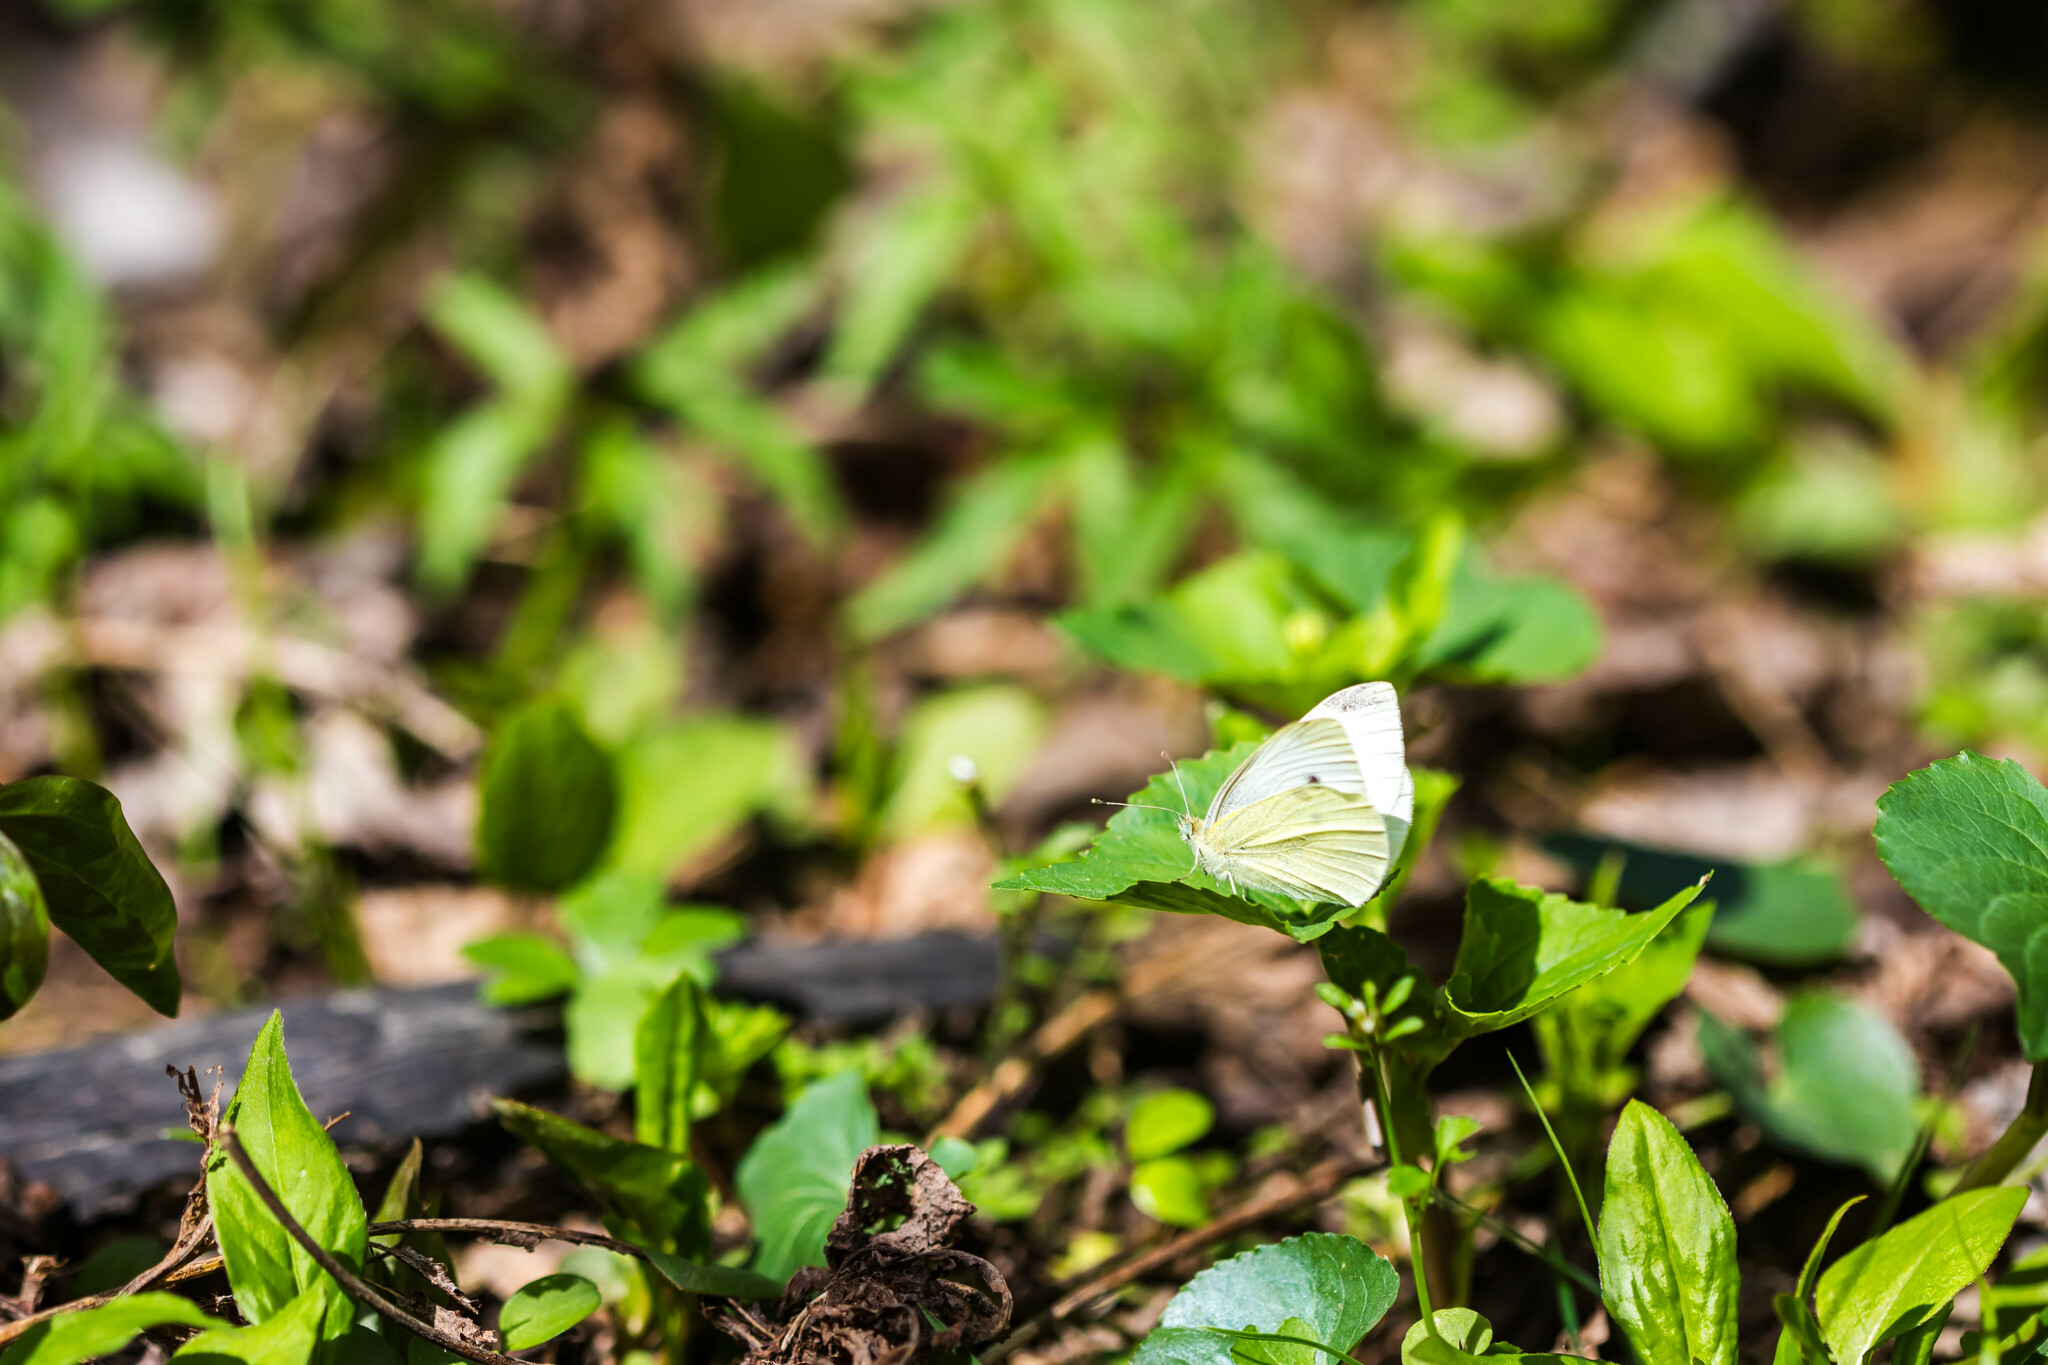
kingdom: Animalia
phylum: Arthropoda
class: Insecta
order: Lepidoptera
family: Pieridae
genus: Pieris
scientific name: Pieris rapae
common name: Small white
